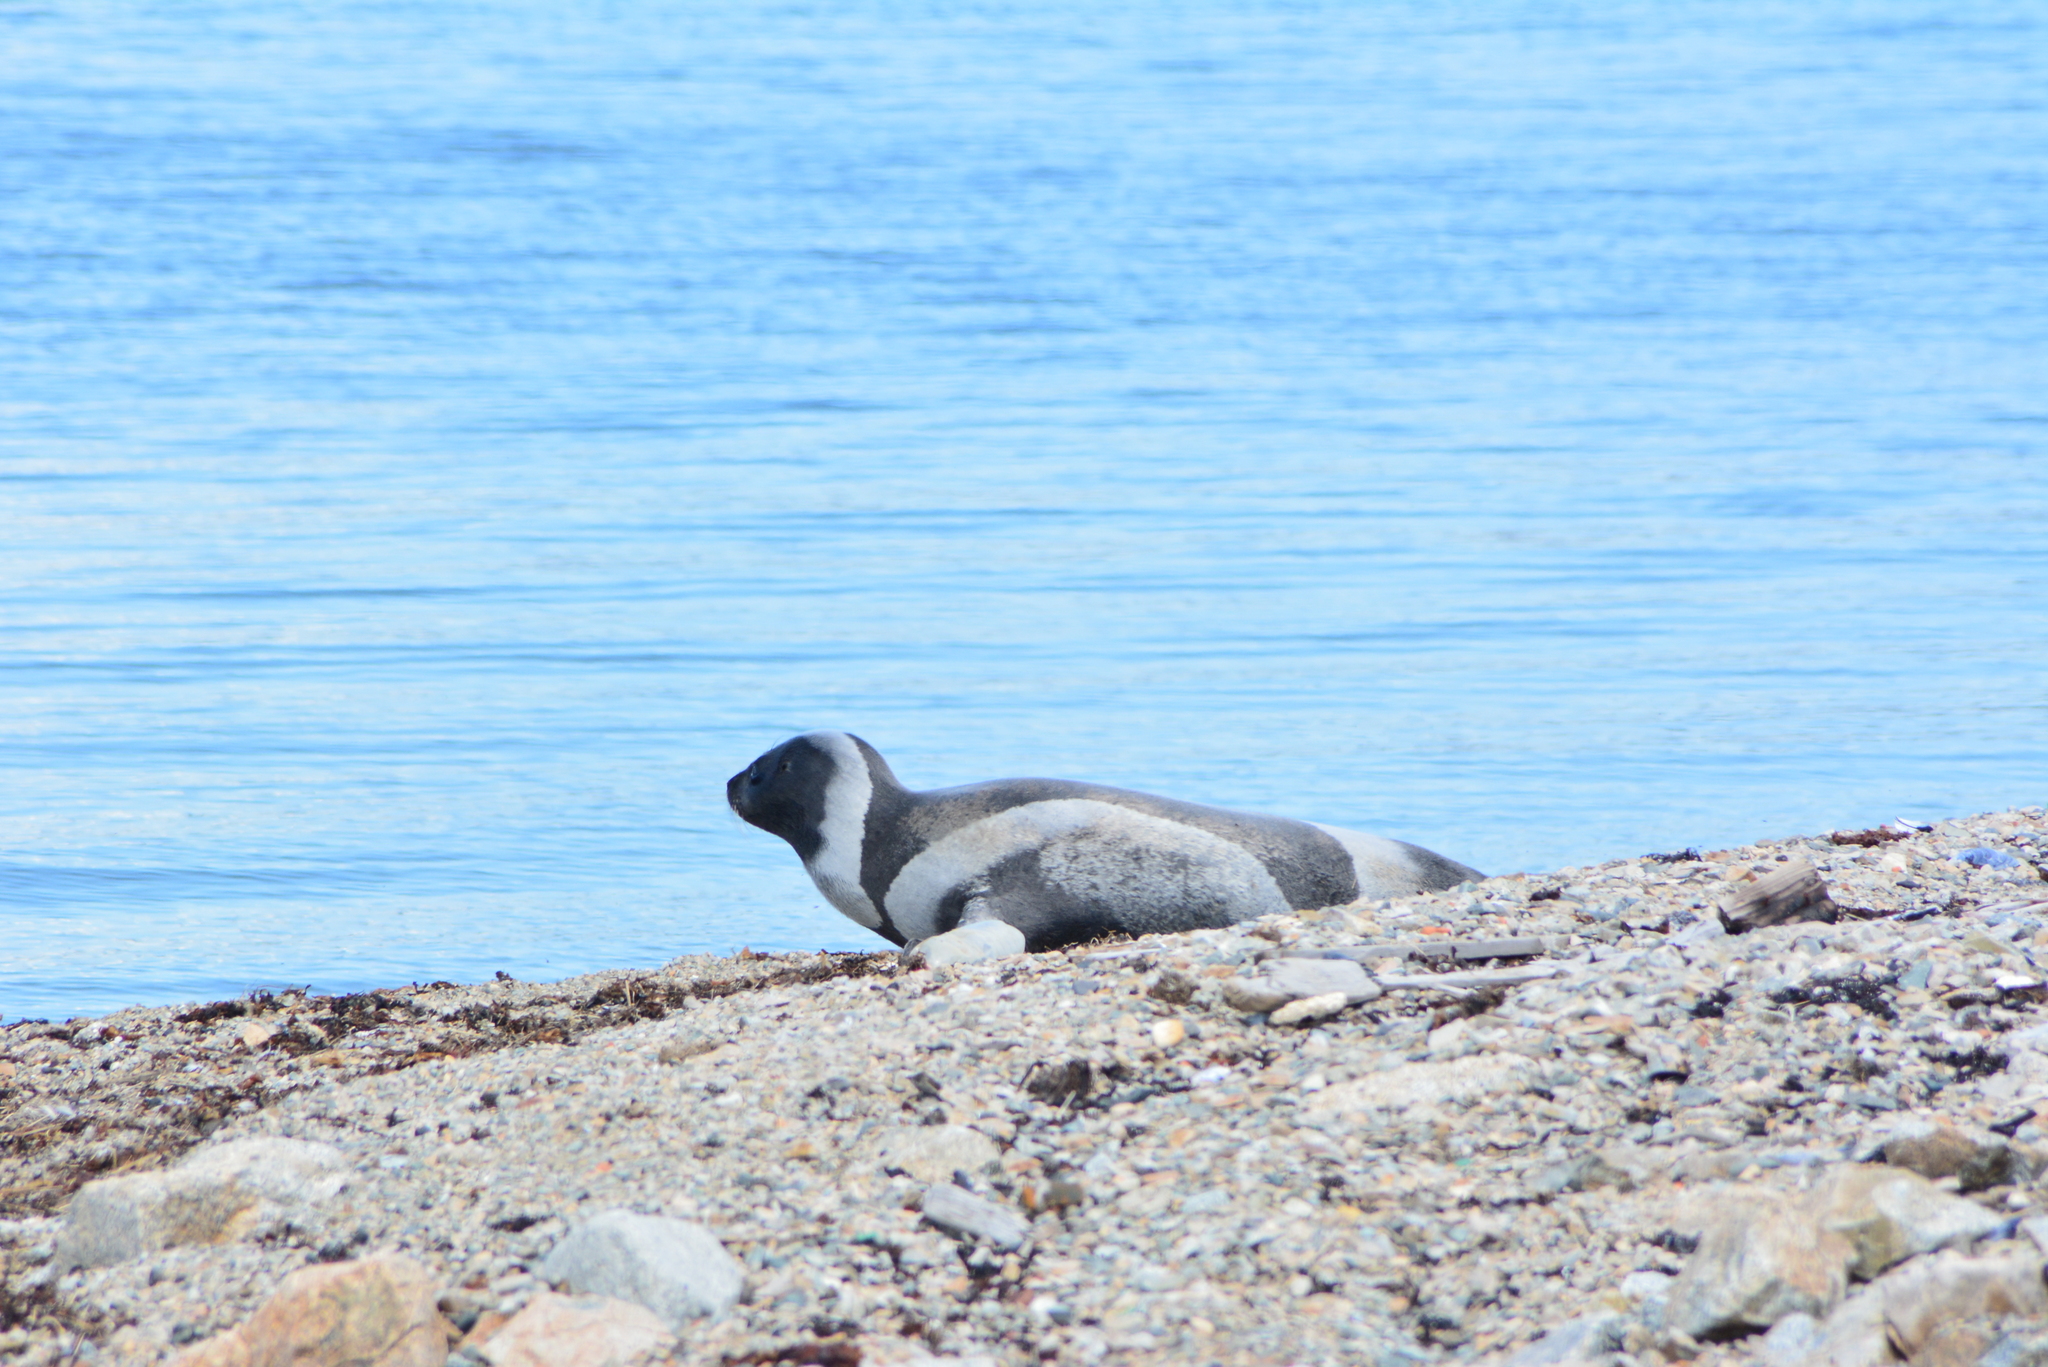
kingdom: Animalia
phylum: Chordata
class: Mammalia
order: Carnivora
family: Phocidae
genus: Histriophoca
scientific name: Histriophoca fasciata
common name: Ribbon seal
